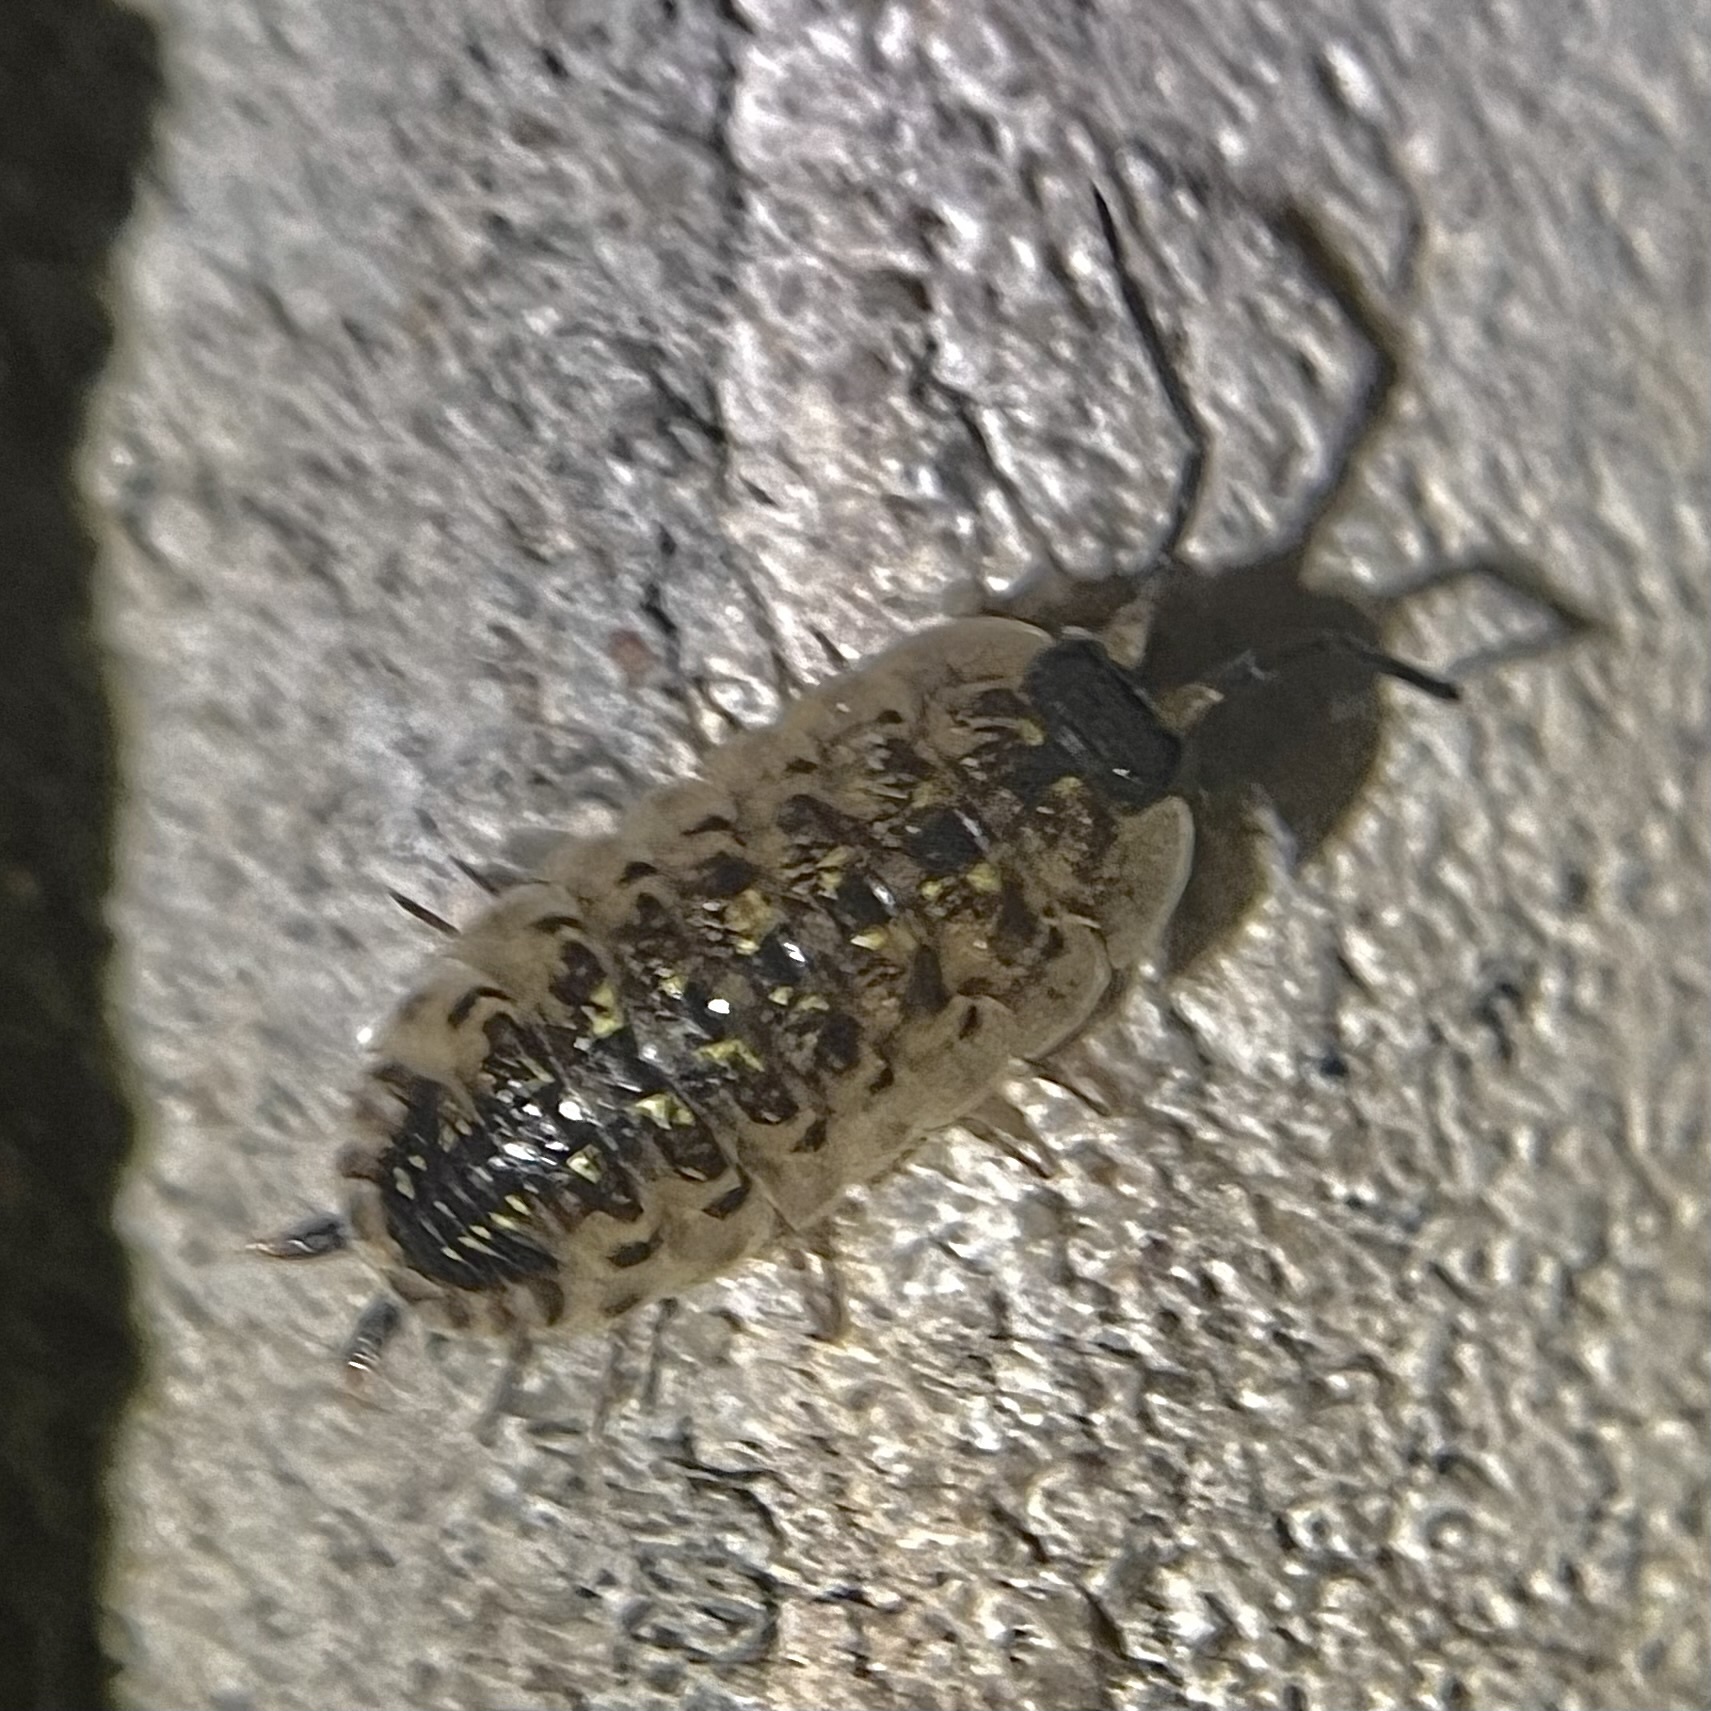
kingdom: Animalia
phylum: Arthropoda
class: Malacostraca
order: Isopoda
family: Porcellionidae
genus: Porcellio
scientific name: Porcellio spinicornis
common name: Painted woodlouse
